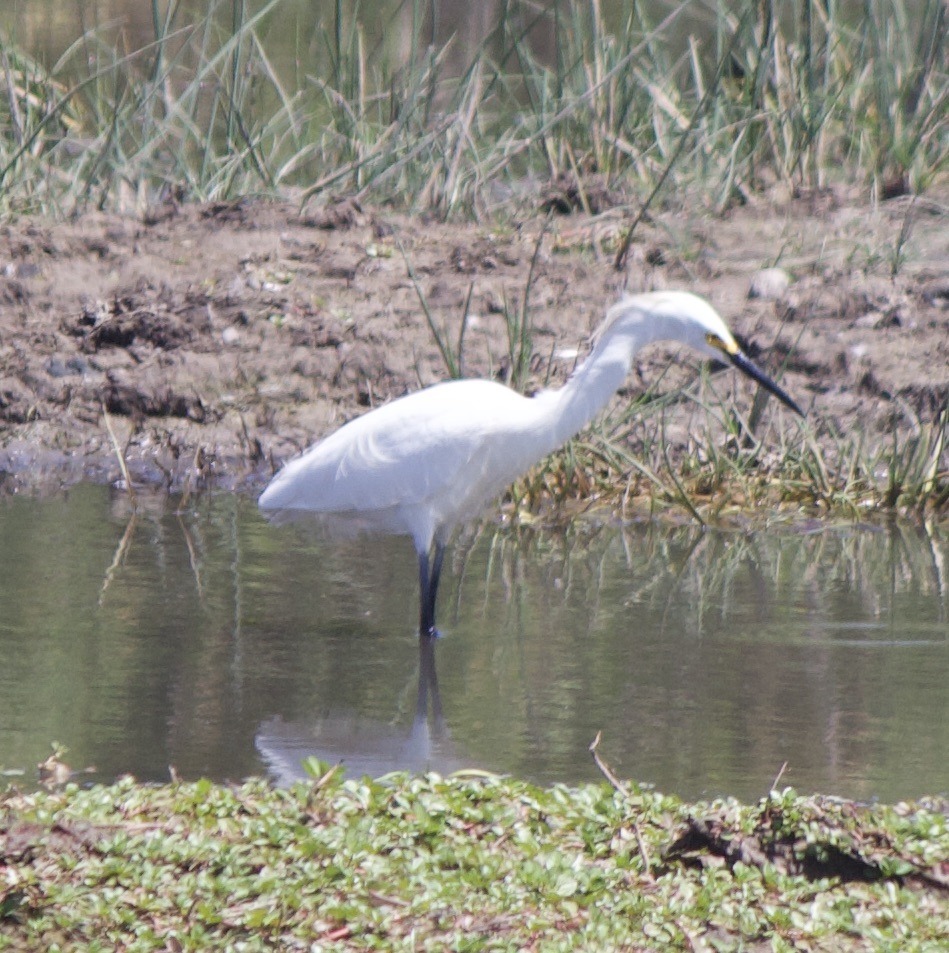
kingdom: Animalia
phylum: Chordata
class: Aves
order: Pelecaniformes
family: Ardeidae
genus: Egretta
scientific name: Egretta thula
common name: Snowy egret
